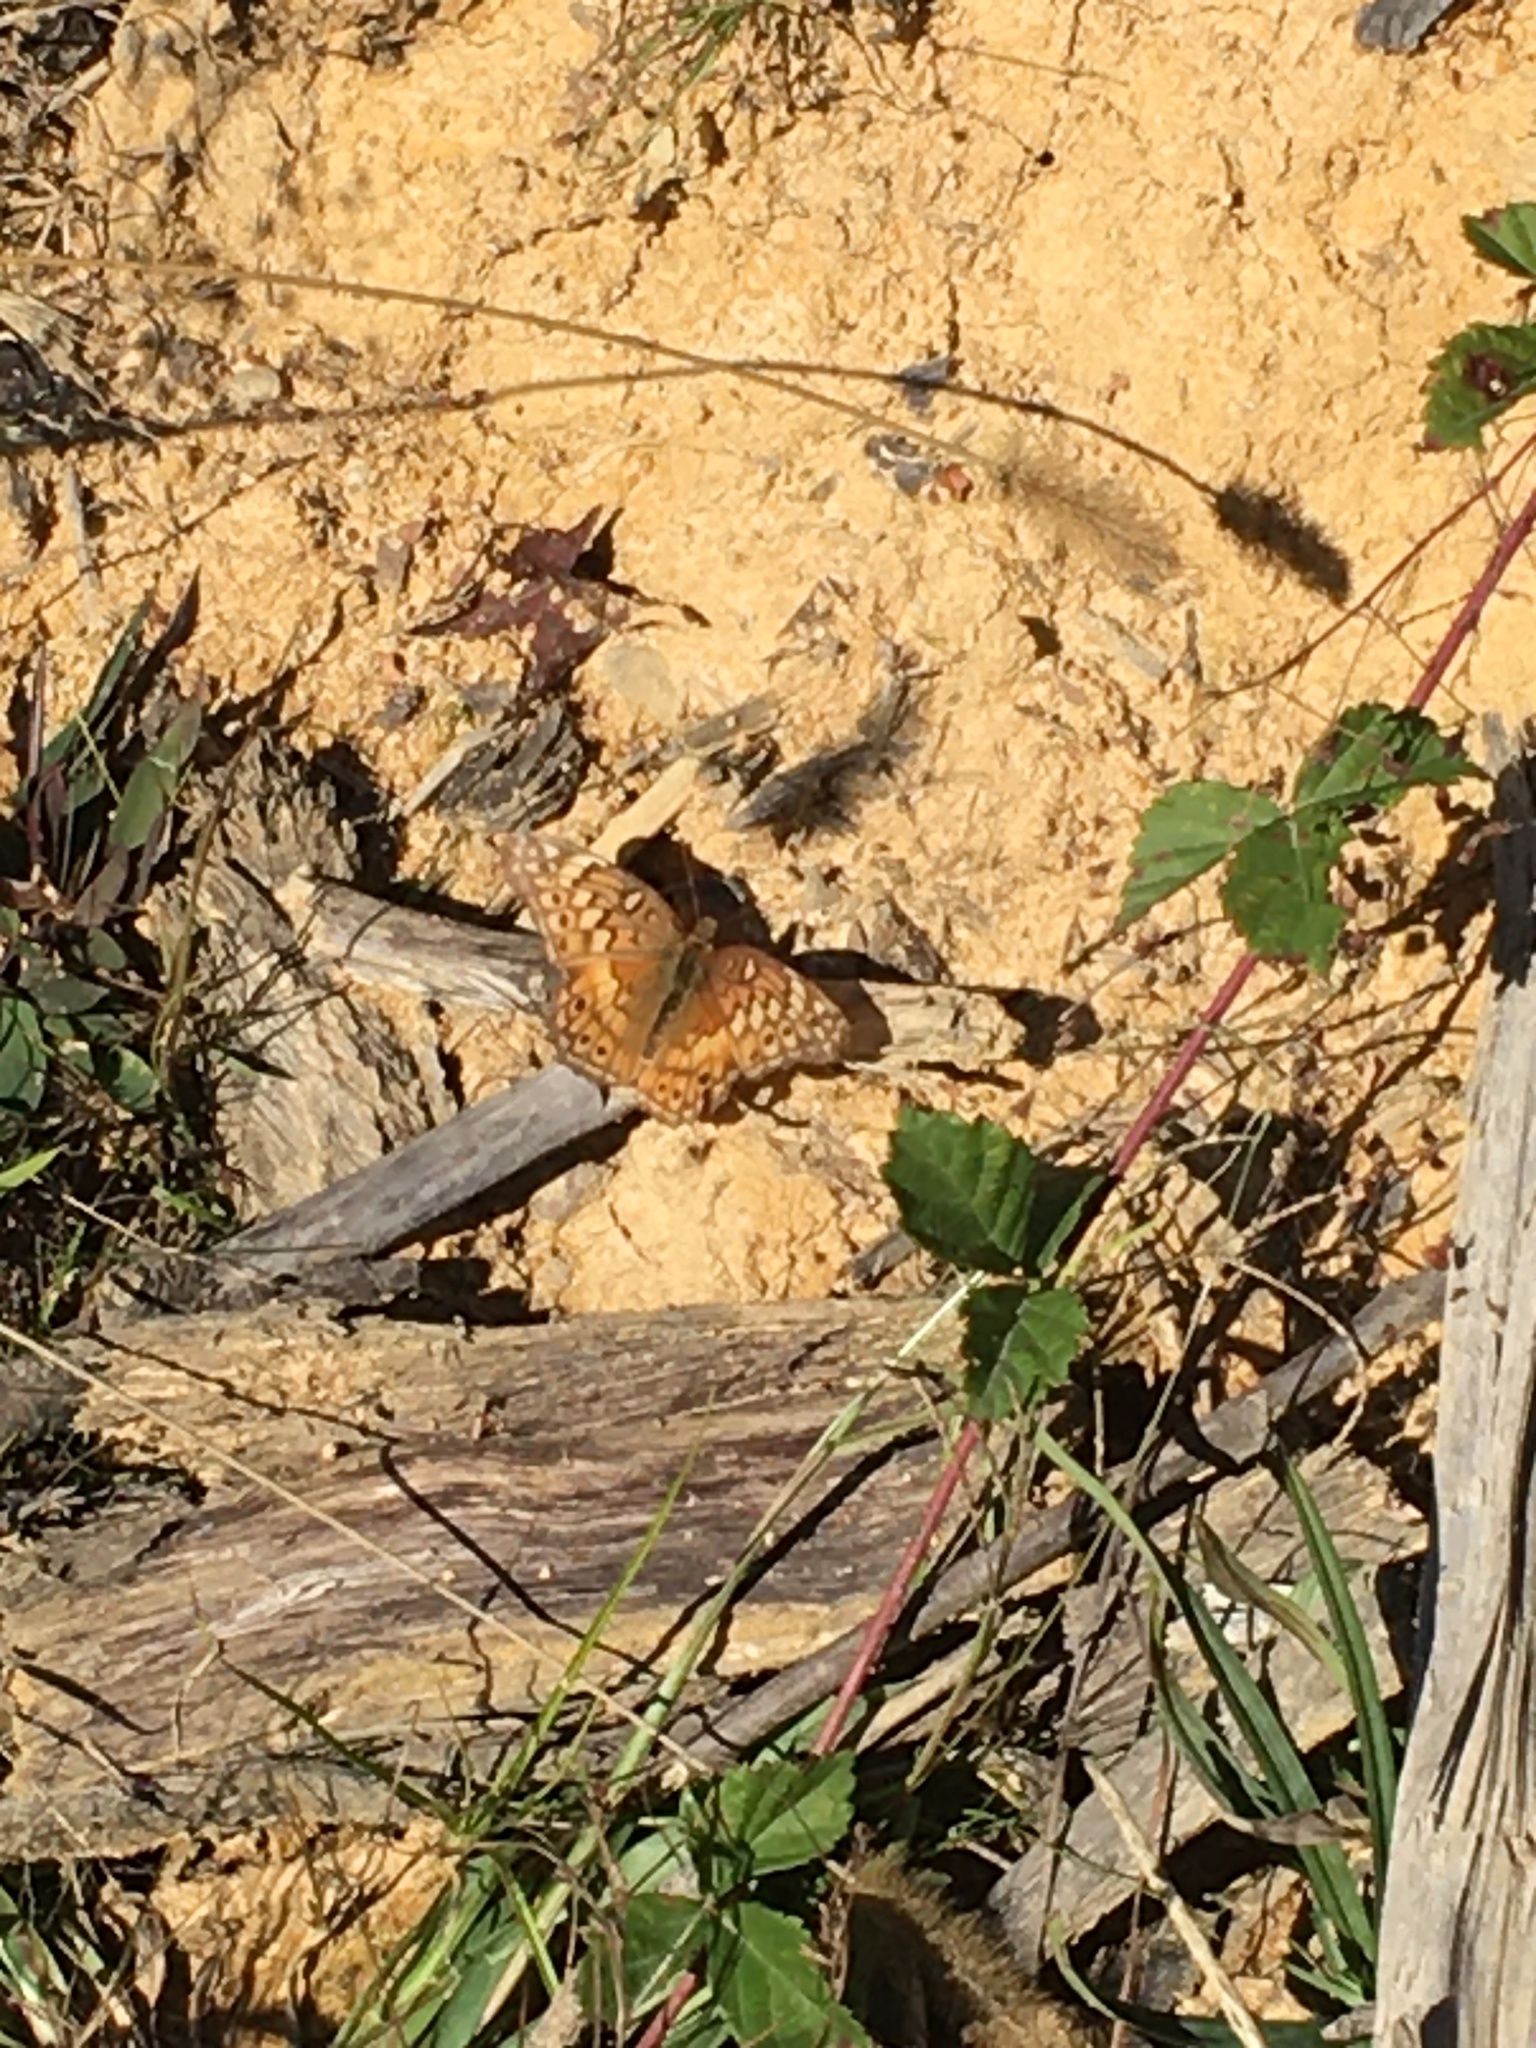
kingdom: Animalia
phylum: Arthropoda
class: Insecta
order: Lepidoptera
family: Nymphalidae
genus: Euptoieta
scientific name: Euptoieta claudia
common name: Variegated fritillary
